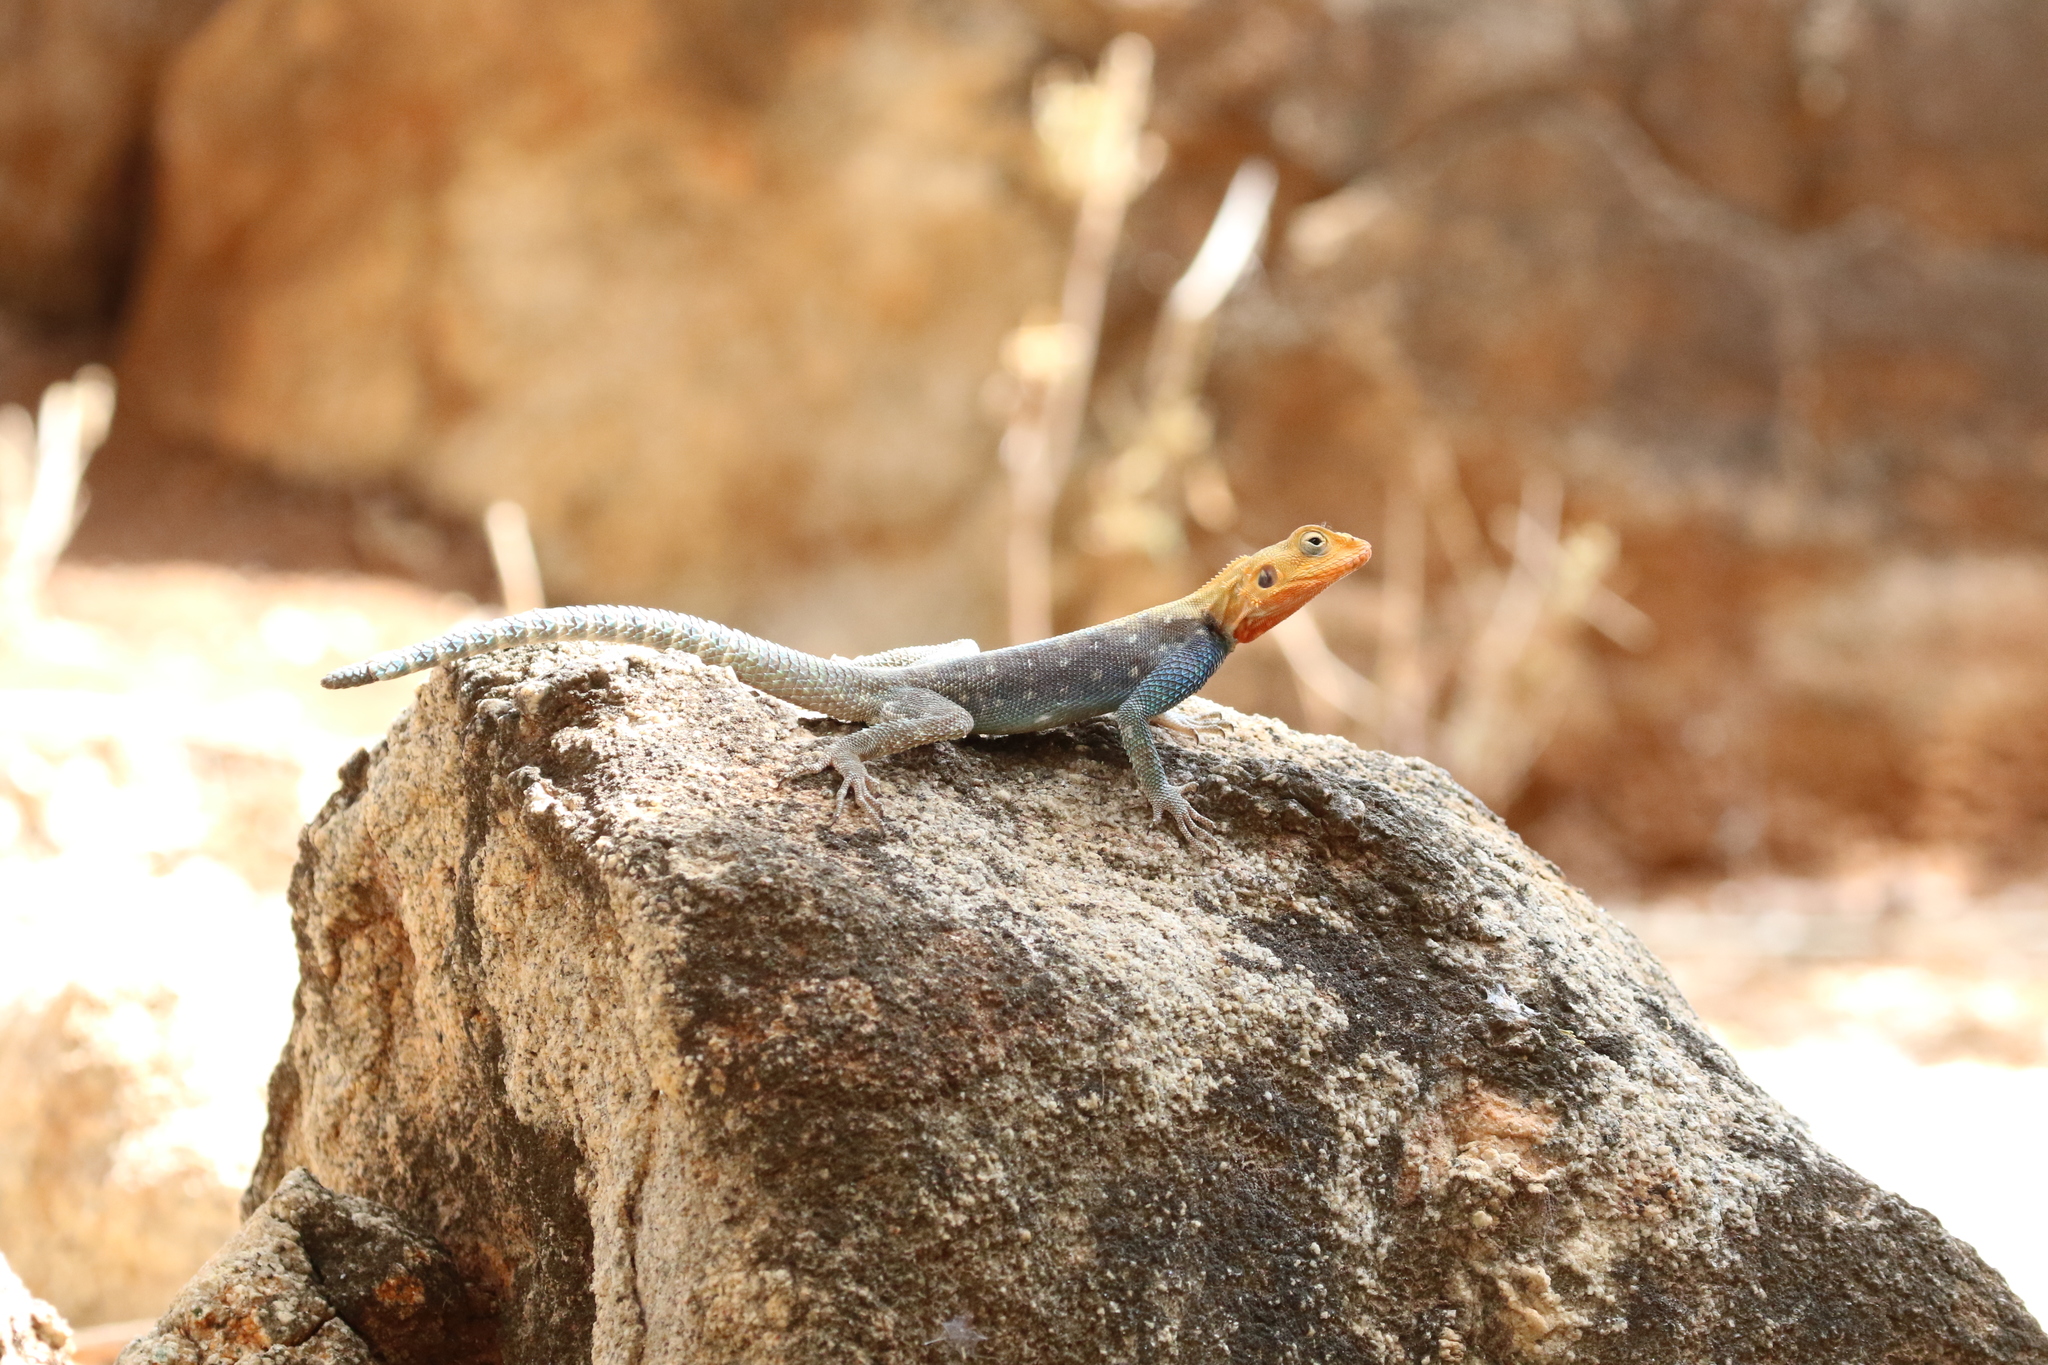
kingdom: Animalia
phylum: Chordata
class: Squamata
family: Agamidae
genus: Agama
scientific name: Agama lionotus
